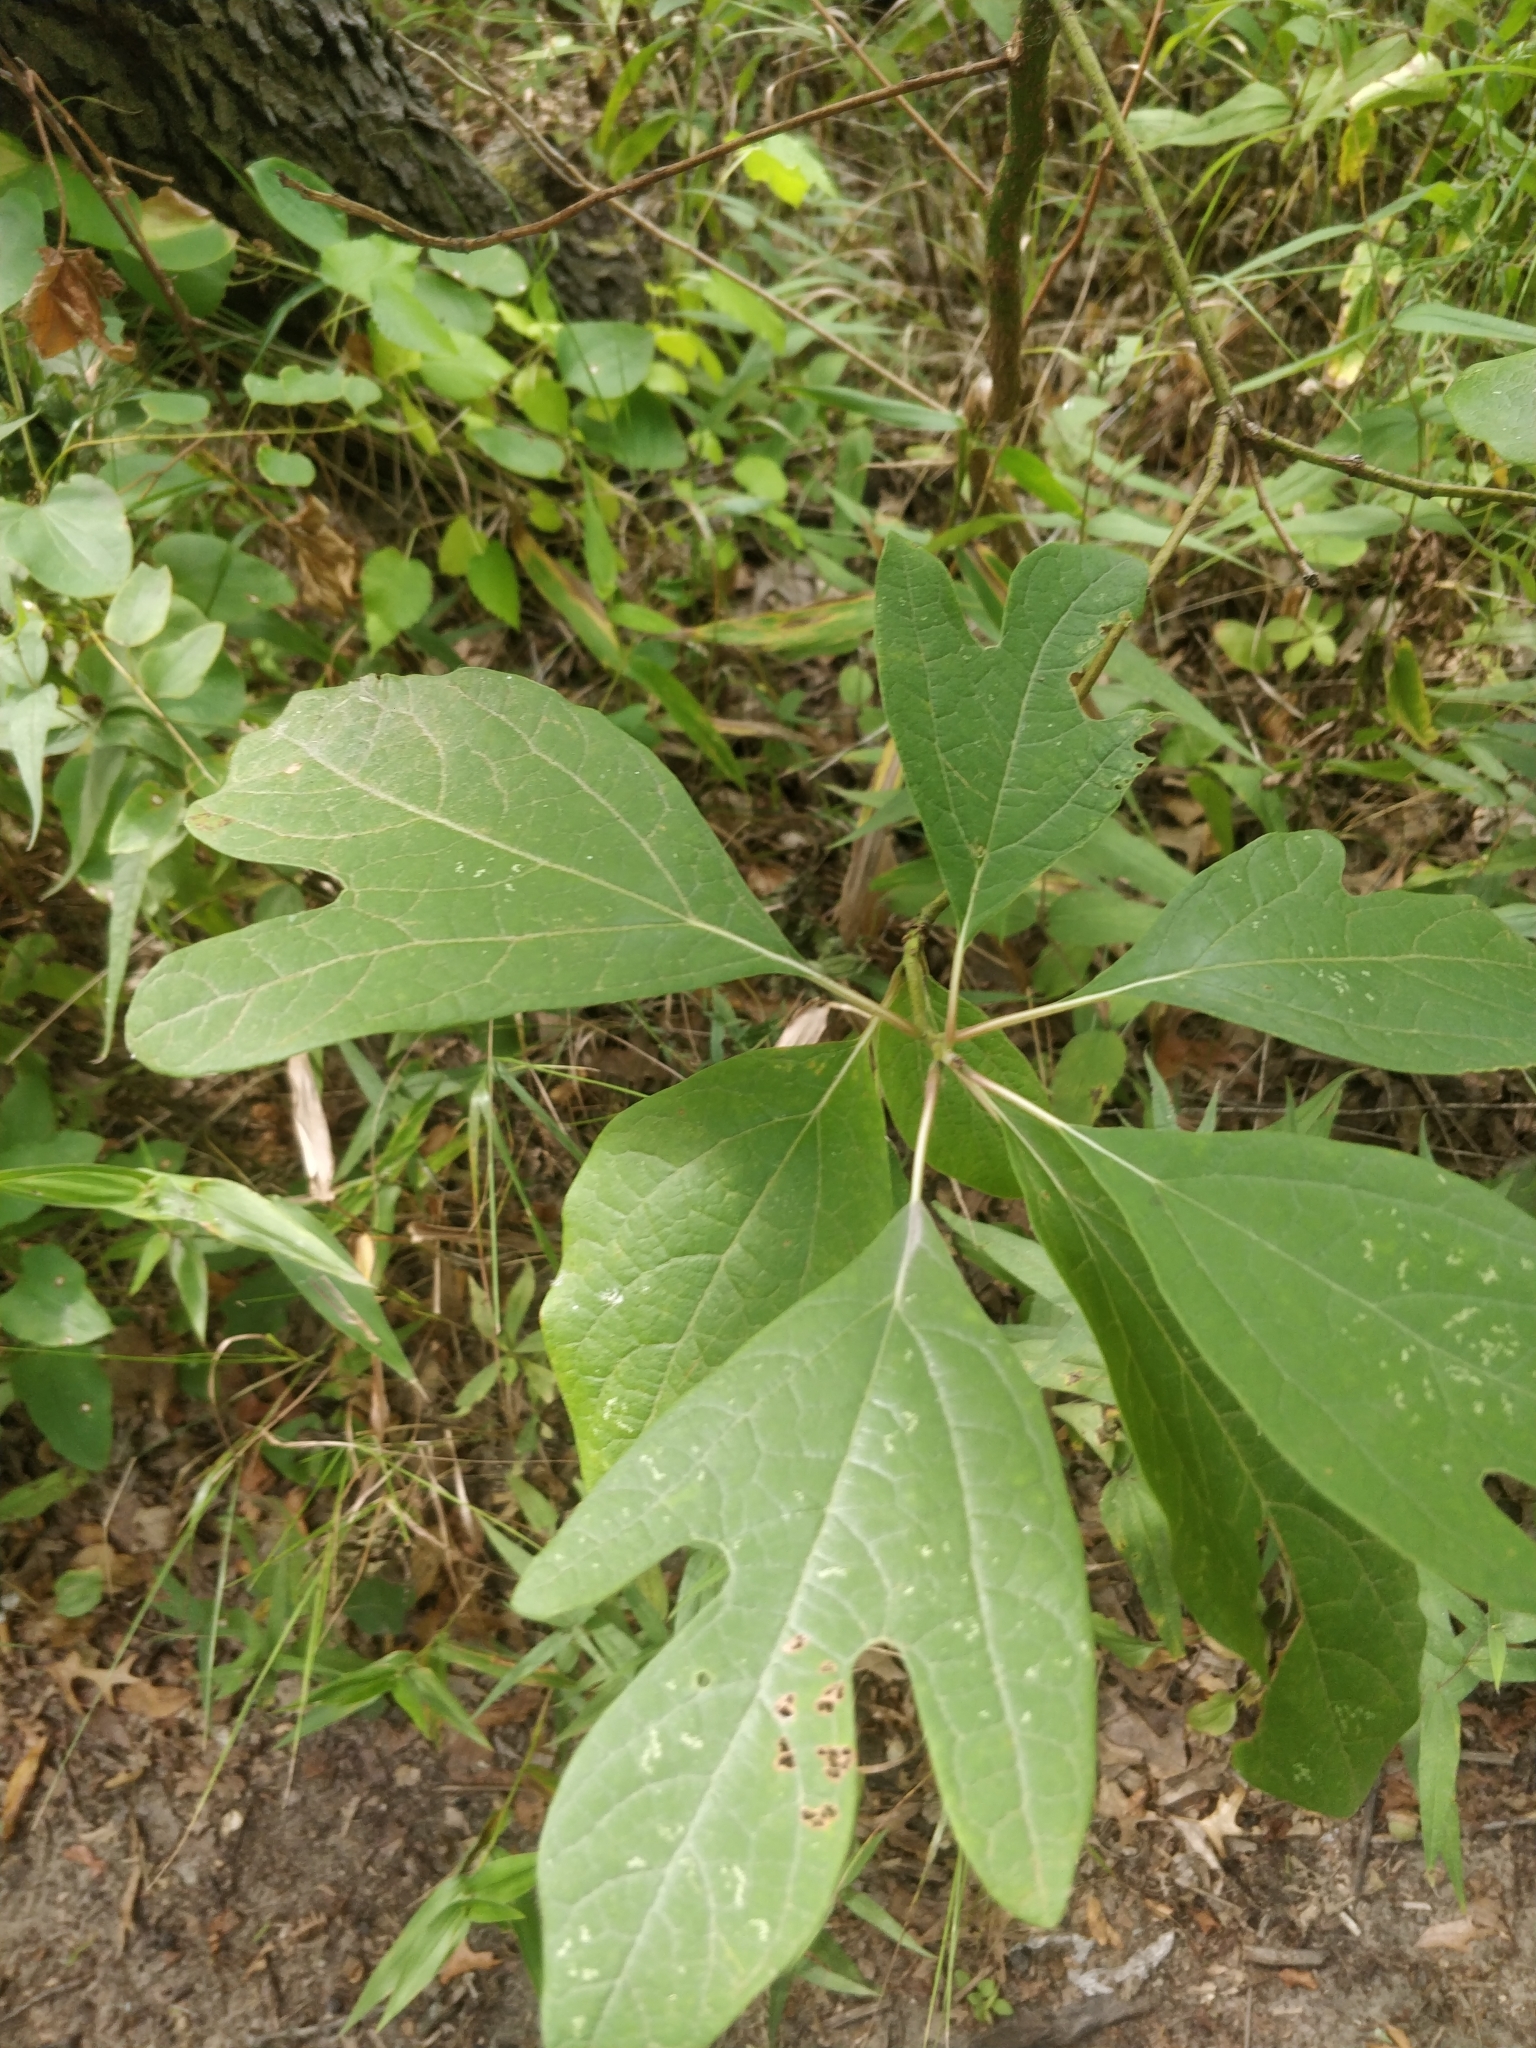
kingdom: Plantae
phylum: Tracheophyta
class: Magnoliopsida
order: Laurales
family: Lauraceae
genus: Sassafras
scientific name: Sassafras albidum
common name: Sassafras
